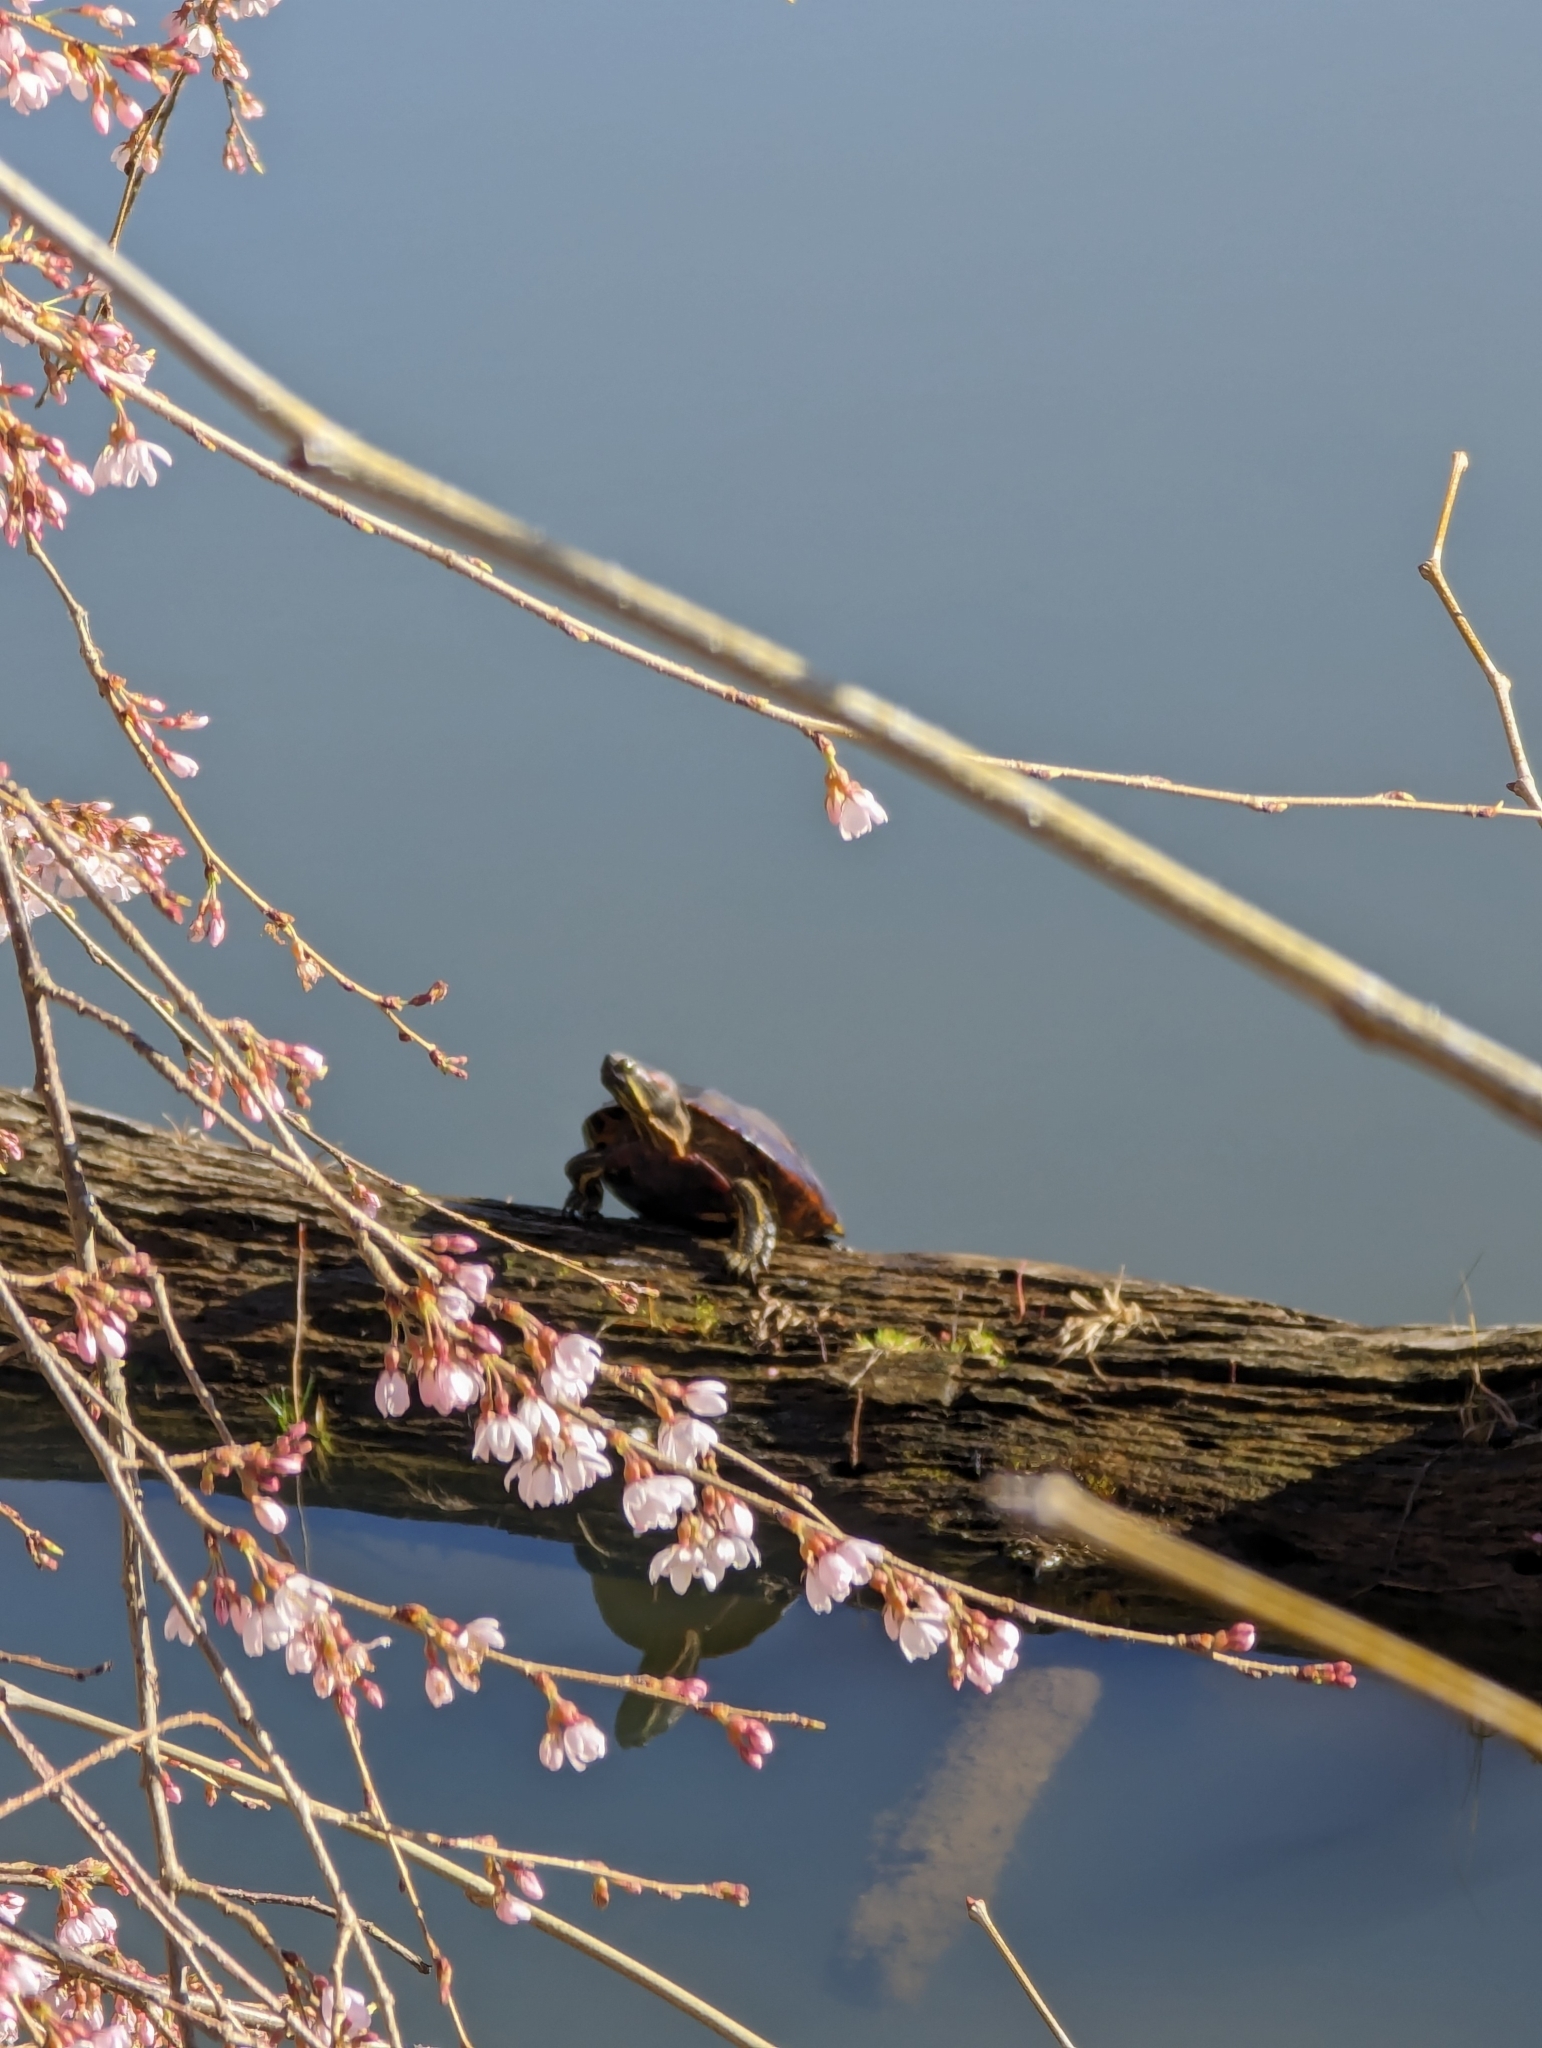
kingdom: Animalia
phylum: Chordata
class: Testudines
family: Emydidae
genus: Chrysemys
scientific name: Chrysemys picta
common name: Painted turtle
